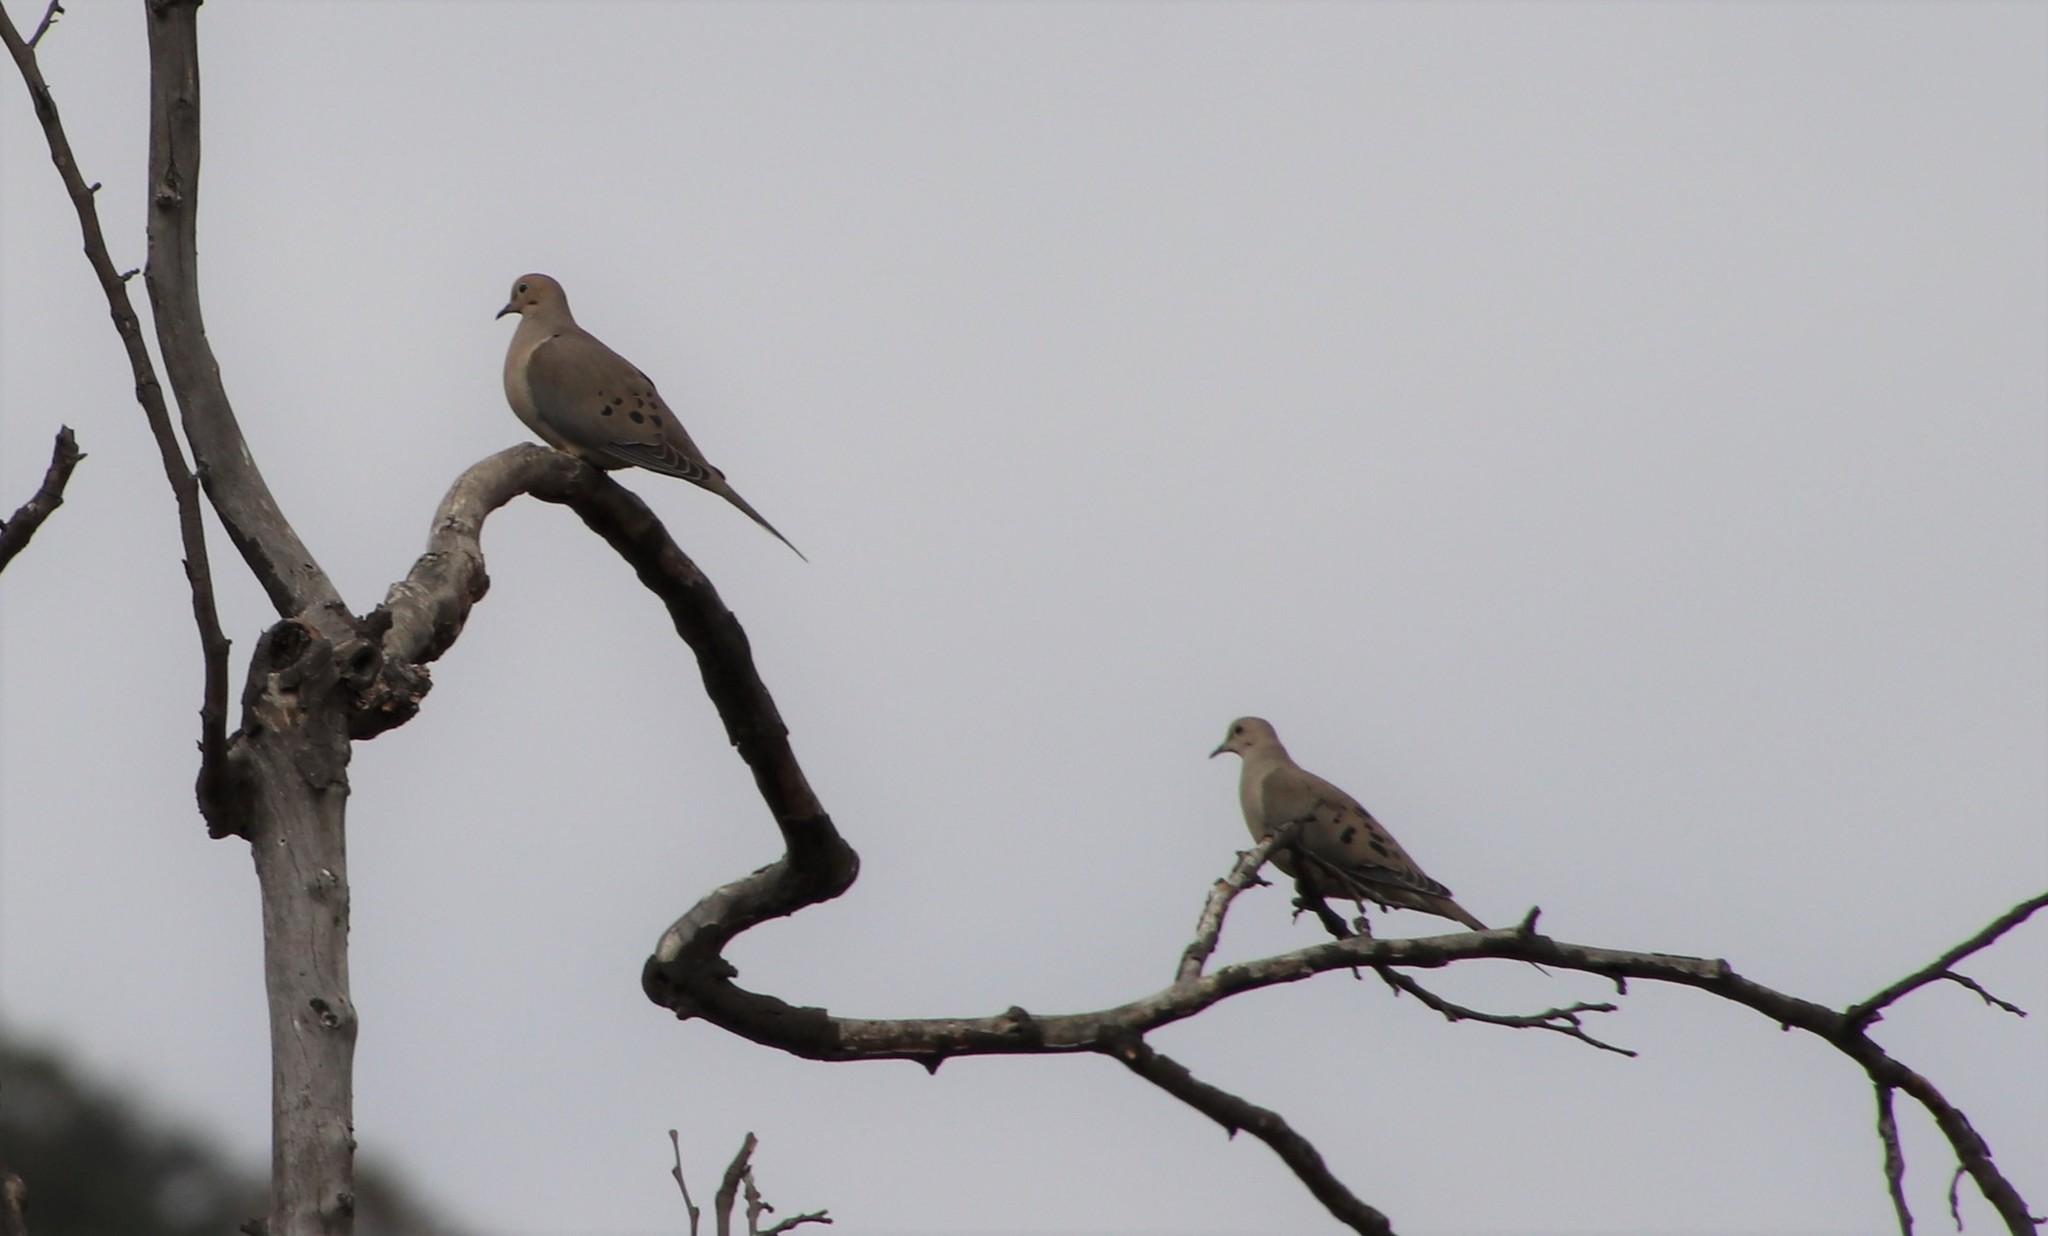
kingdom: Animalia
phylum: Chordata
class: Aves
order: Columbiformes
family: Columbidae
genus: Zenaida
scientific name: Zenaida macroura
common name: Mourning dove
